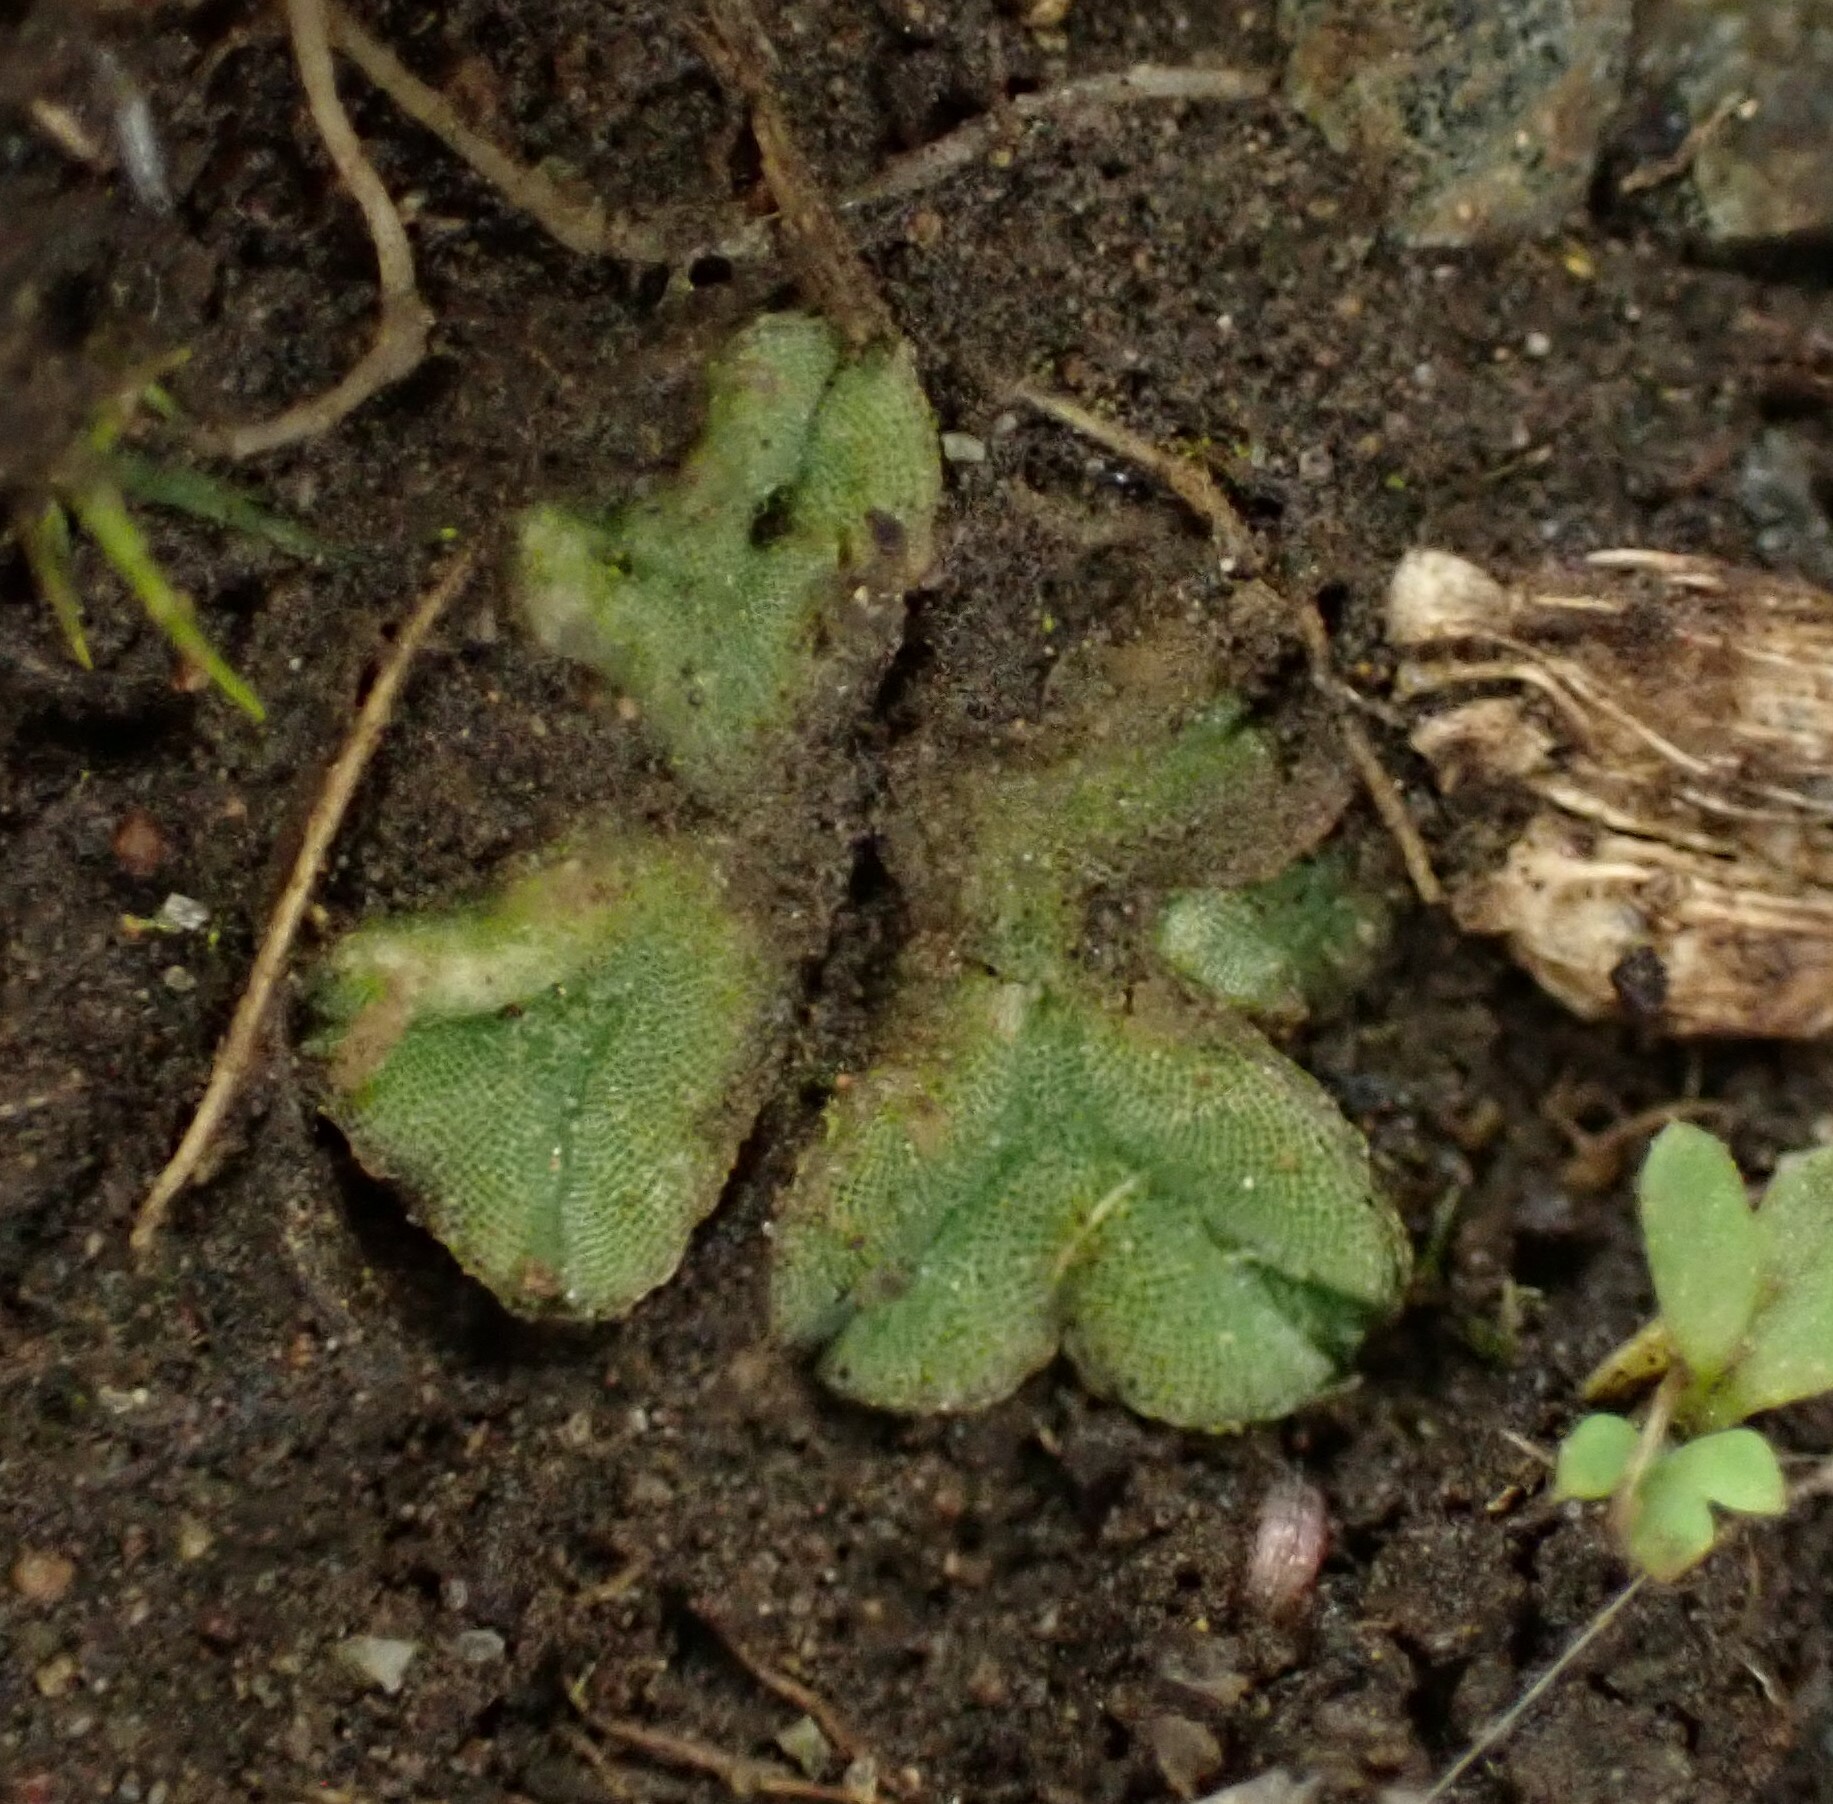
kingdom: Plantae
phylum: Marchantiophyta
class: Marchantiopsida
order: Marchantiales
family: Ricciaceae
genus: Riccia
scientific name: Riccia sorocarpa
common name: Common crystalwort
